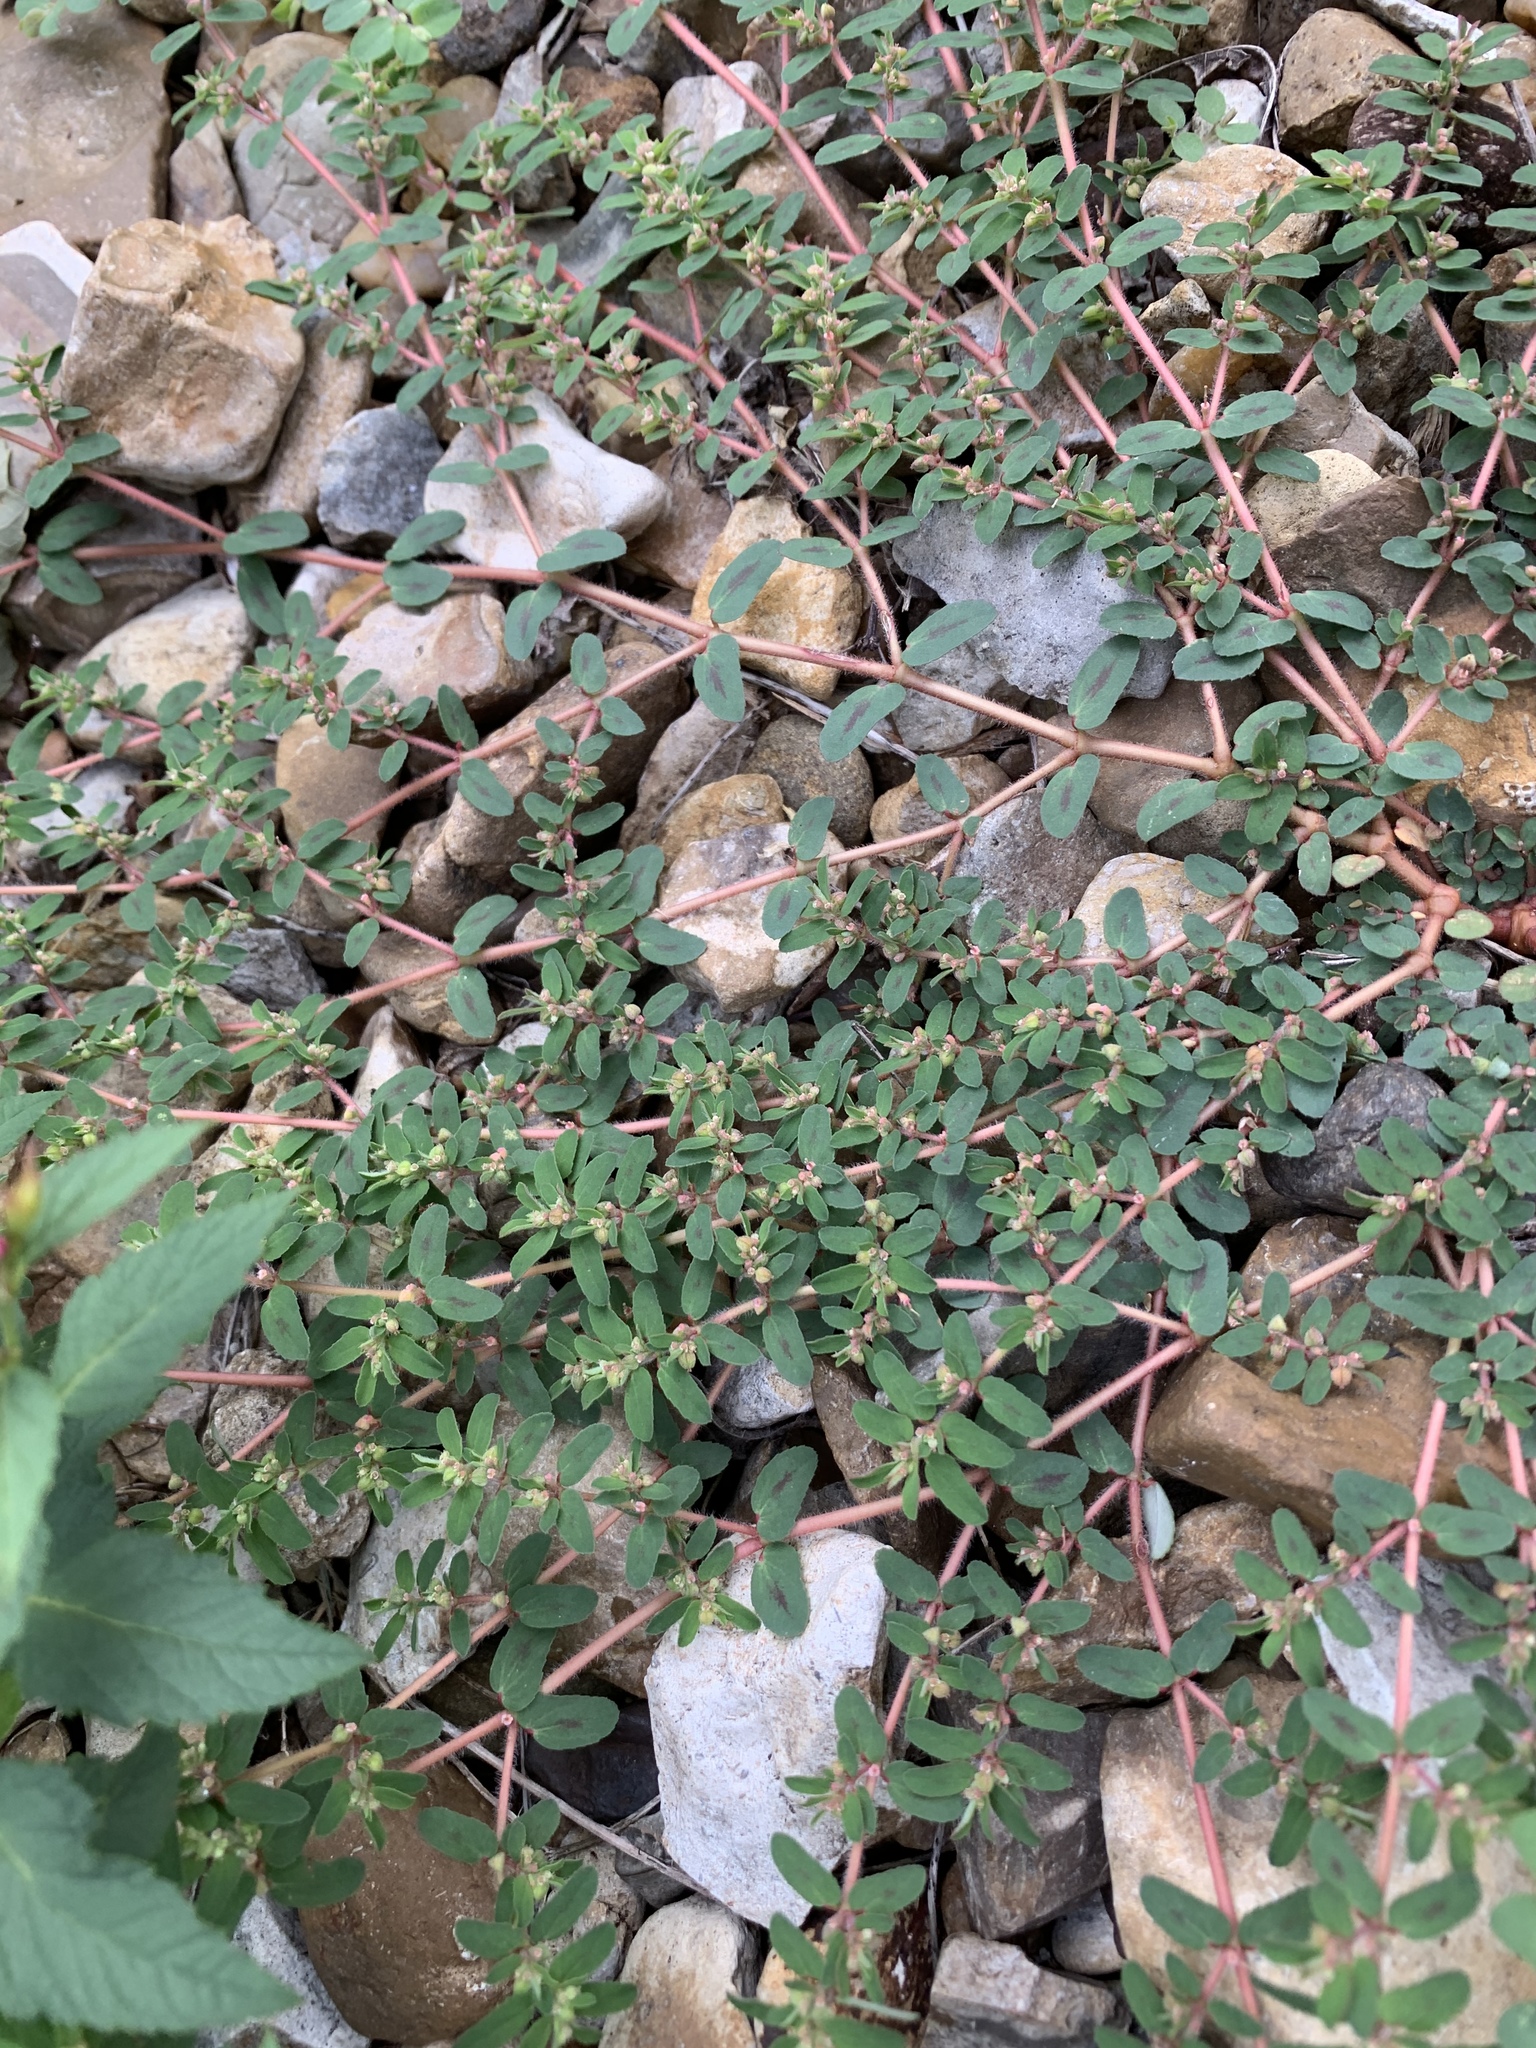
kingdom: Plantae
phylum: Tracheophyta
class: Magnoliopsida
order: Malpighiales
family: Euphorbiaceae
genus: Euphorbia
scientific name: Euphorbia maculata
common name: Spotted spurge
